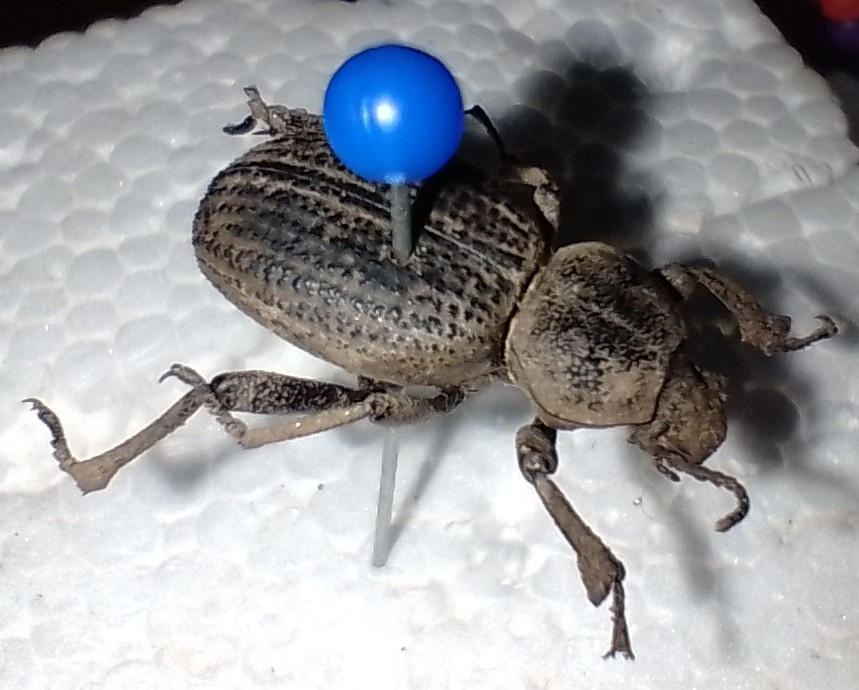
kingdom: Animalia
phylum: Arthropoda
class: Insecta
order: Coleoptera
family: Tenebrionidae
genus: Scotobius
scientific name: Scotobius
